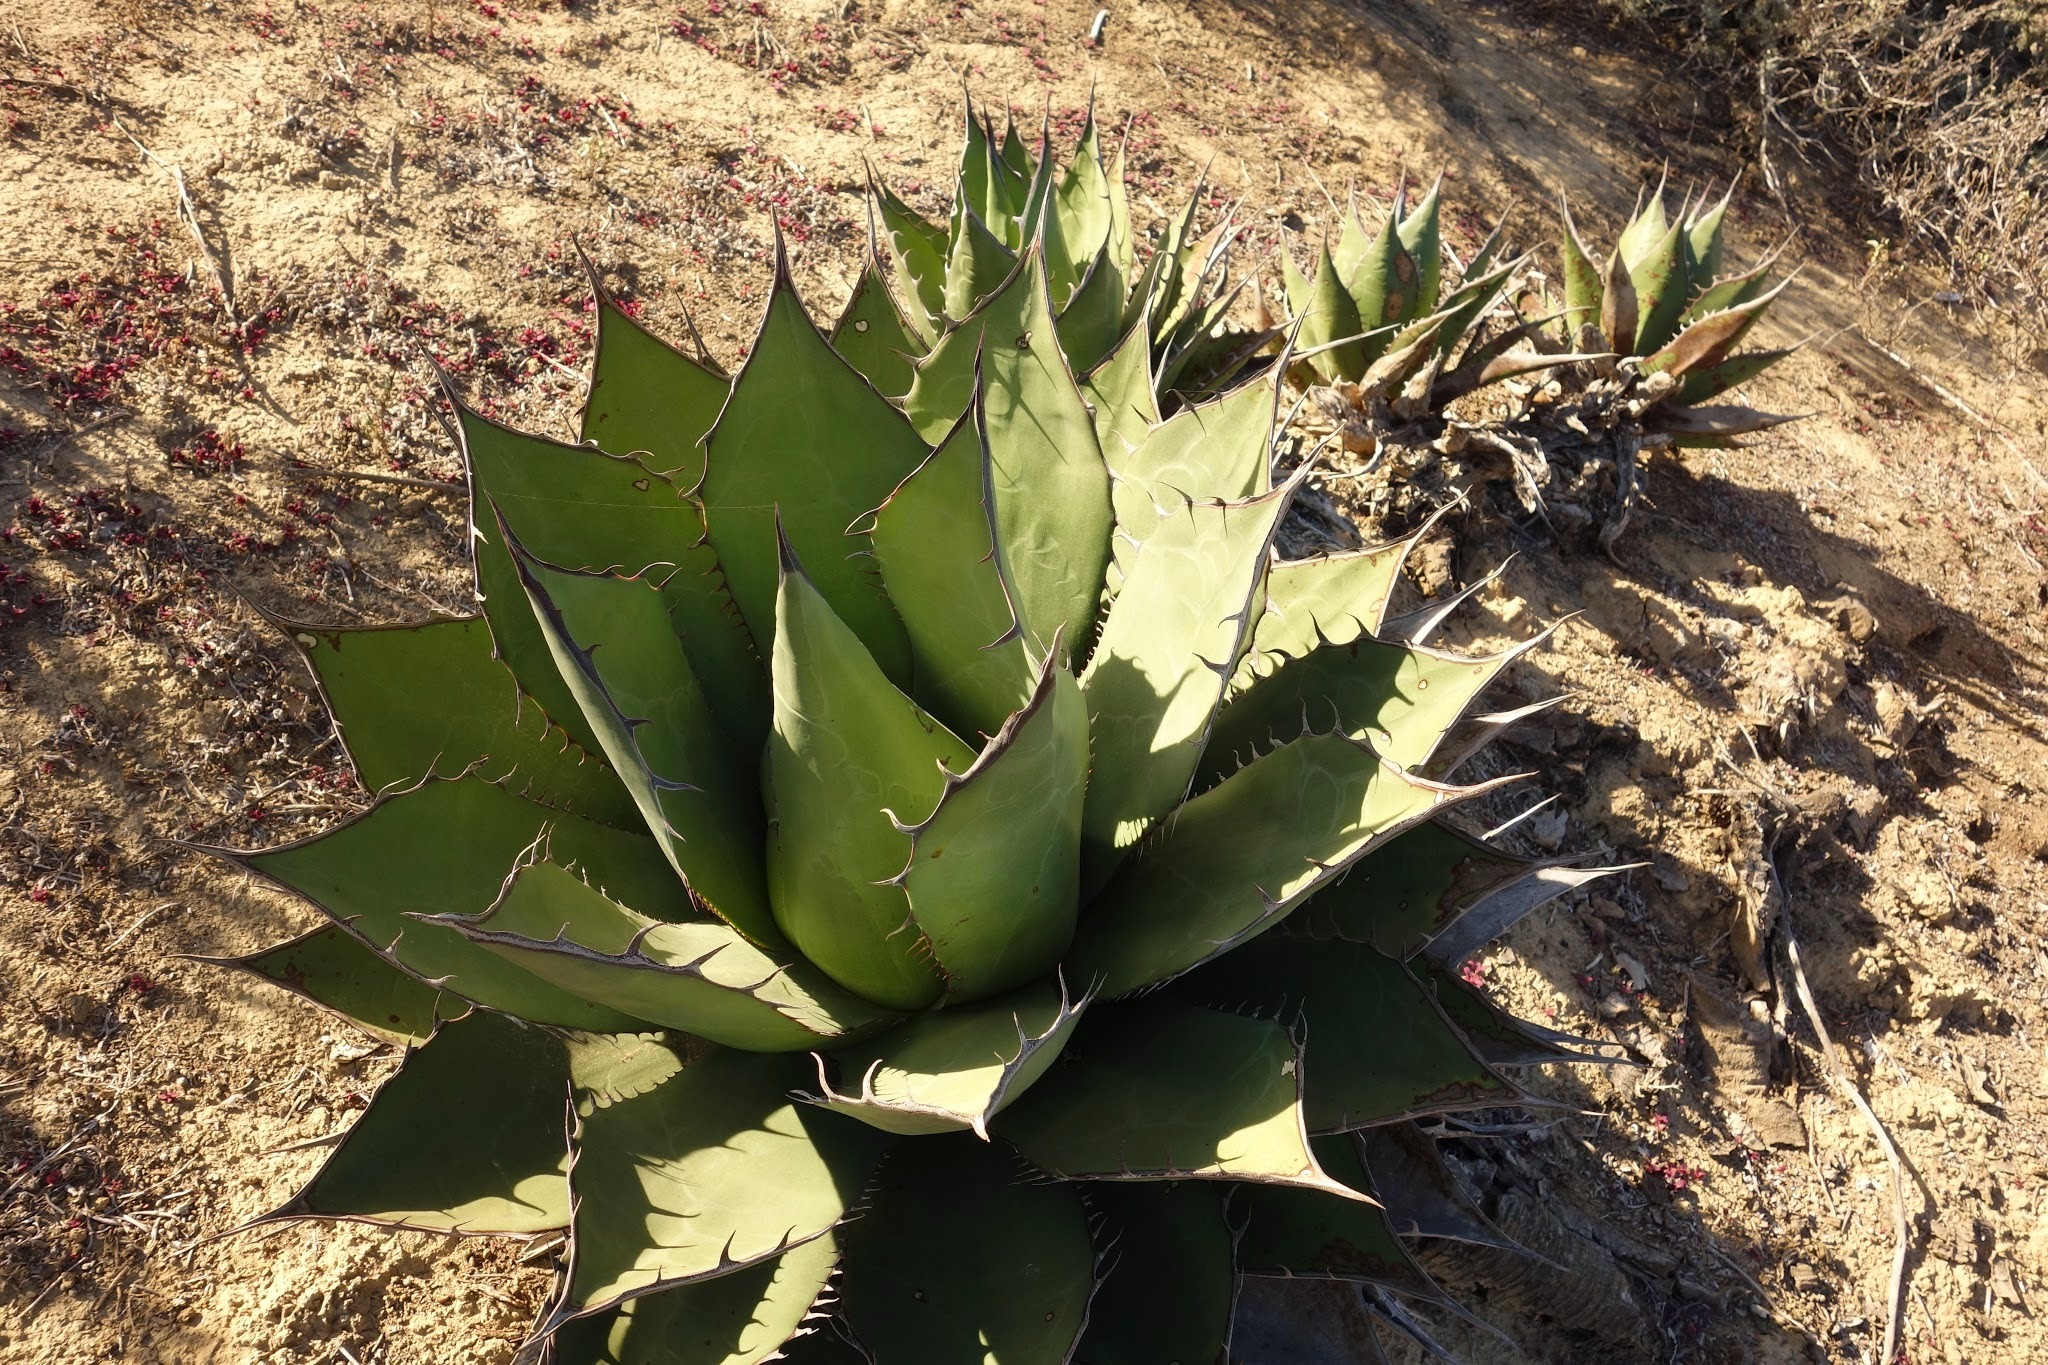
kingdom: Plantae
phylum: Tracheophyta
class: Liliopsida
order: Asparagales
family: Asparagaceae
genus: Agave
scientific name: Agave shawii
